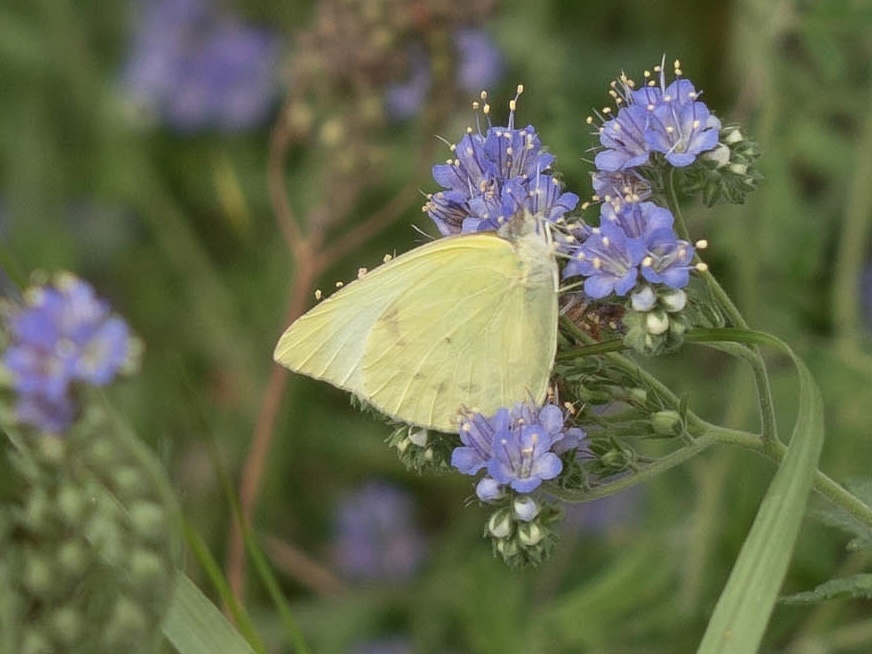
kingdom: Animalia
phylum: Arthropoda
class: Insecta
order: Lepidoptera
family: Pieridae
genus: Kricogonia
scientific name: Kricogonia lyside
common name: Guayacan sulphur,
